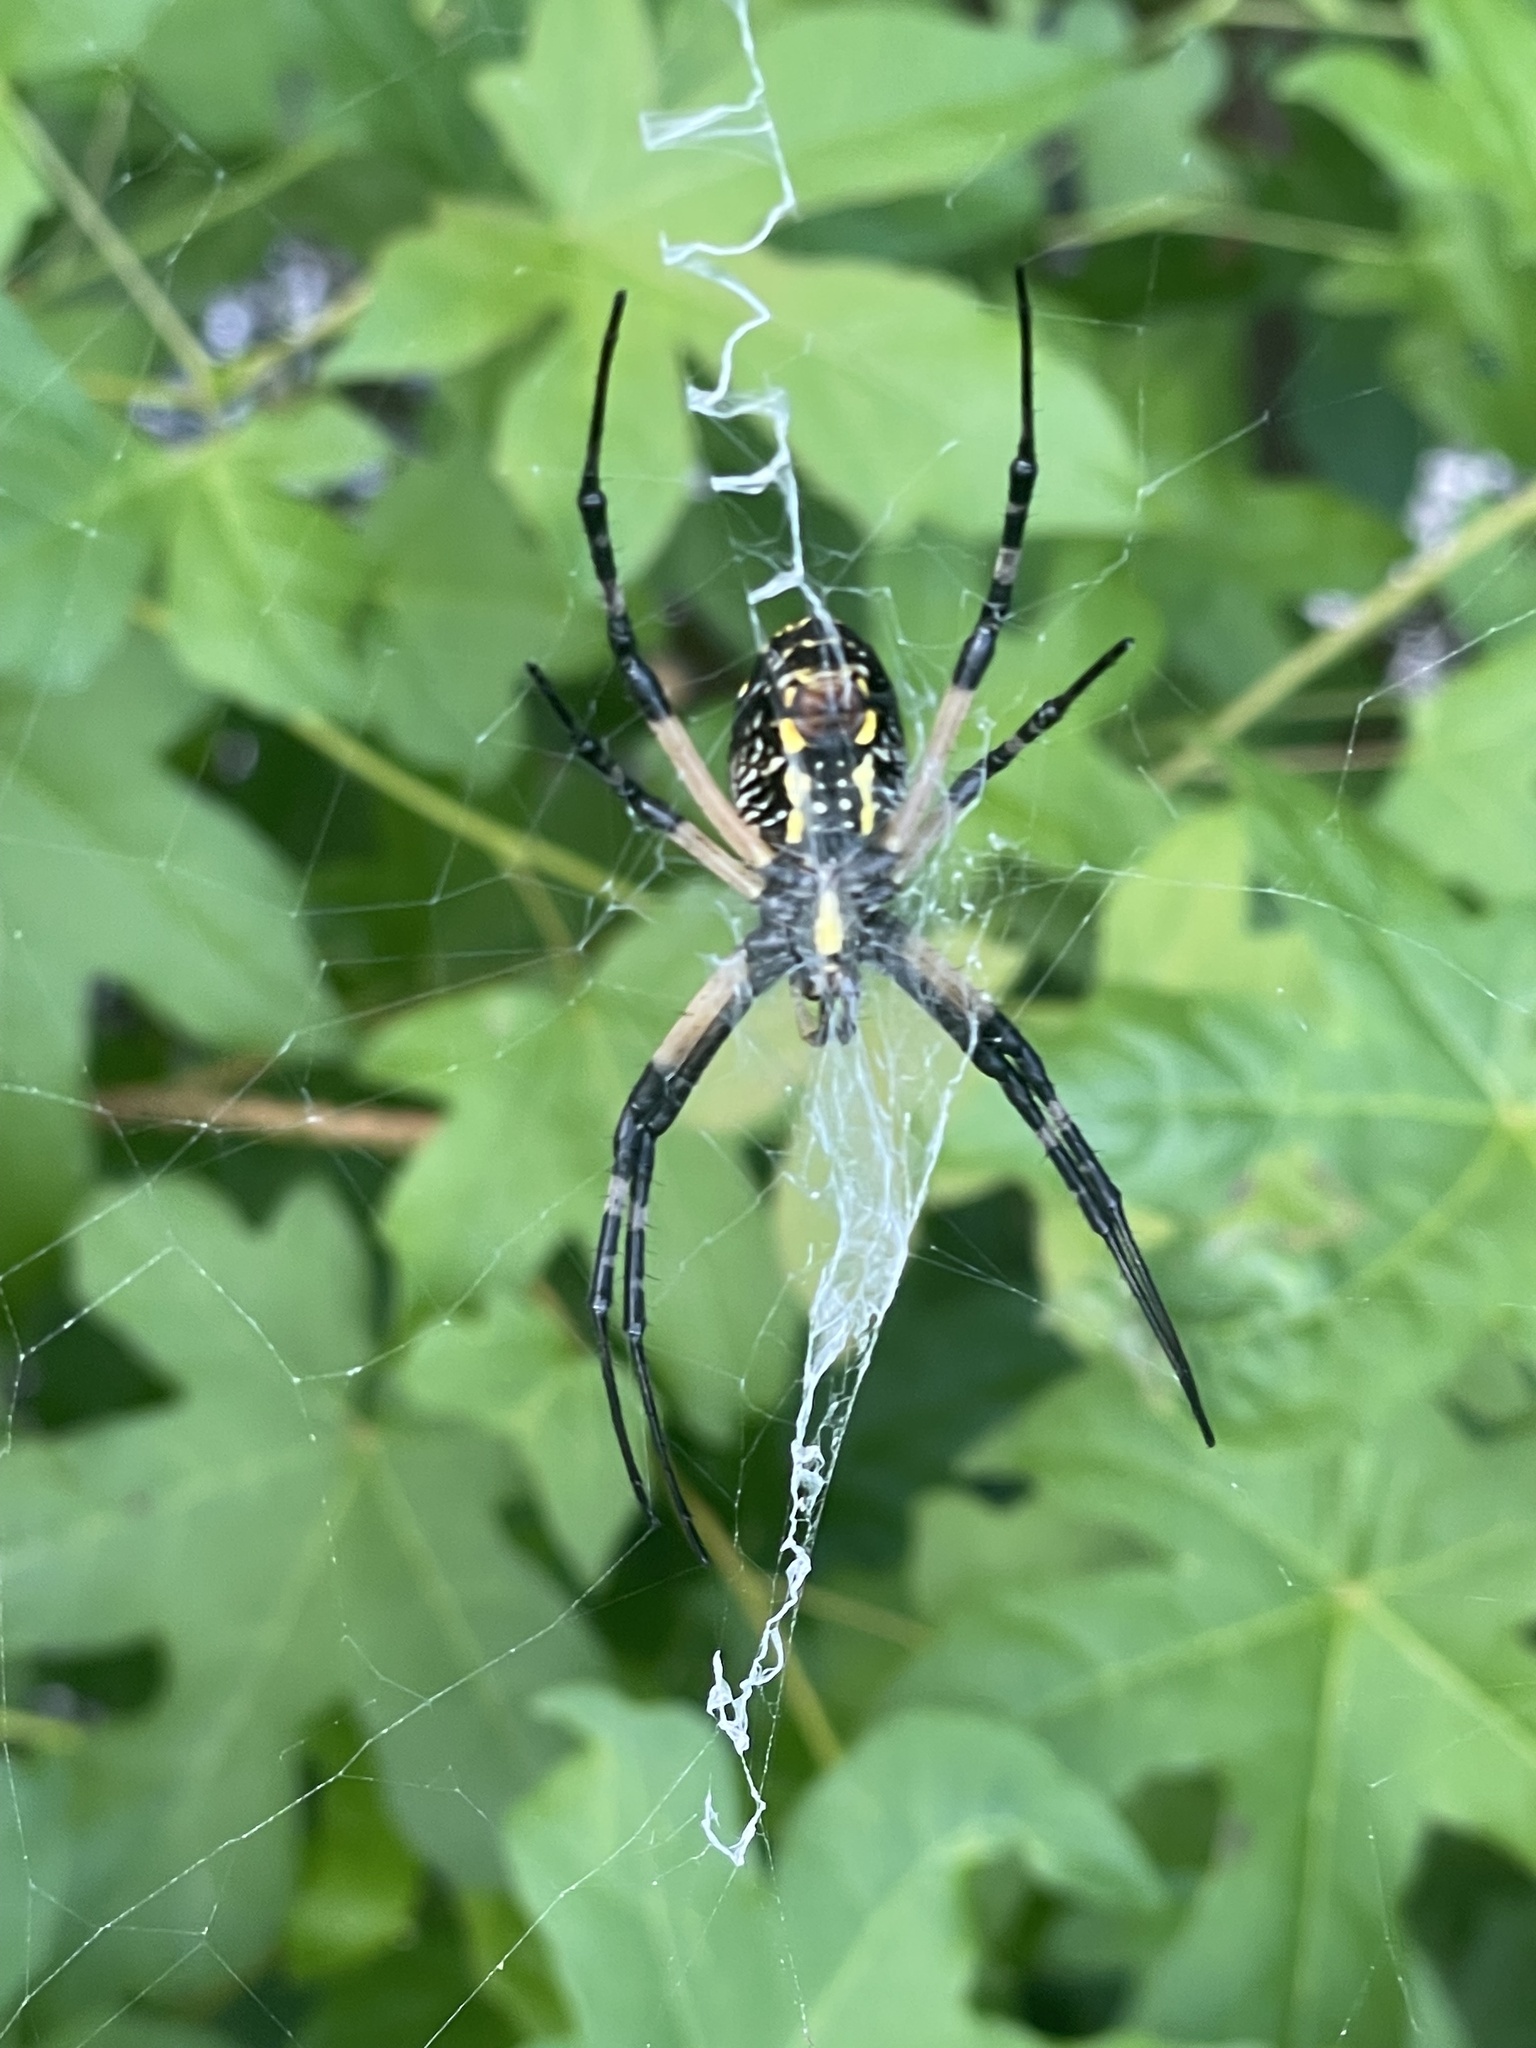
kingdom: Animalia
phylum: Arthropoda
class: Arachnida
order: Araneae
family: Araneidae
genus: Argiope
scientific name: Argiope aurantia
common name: Orb weavers
